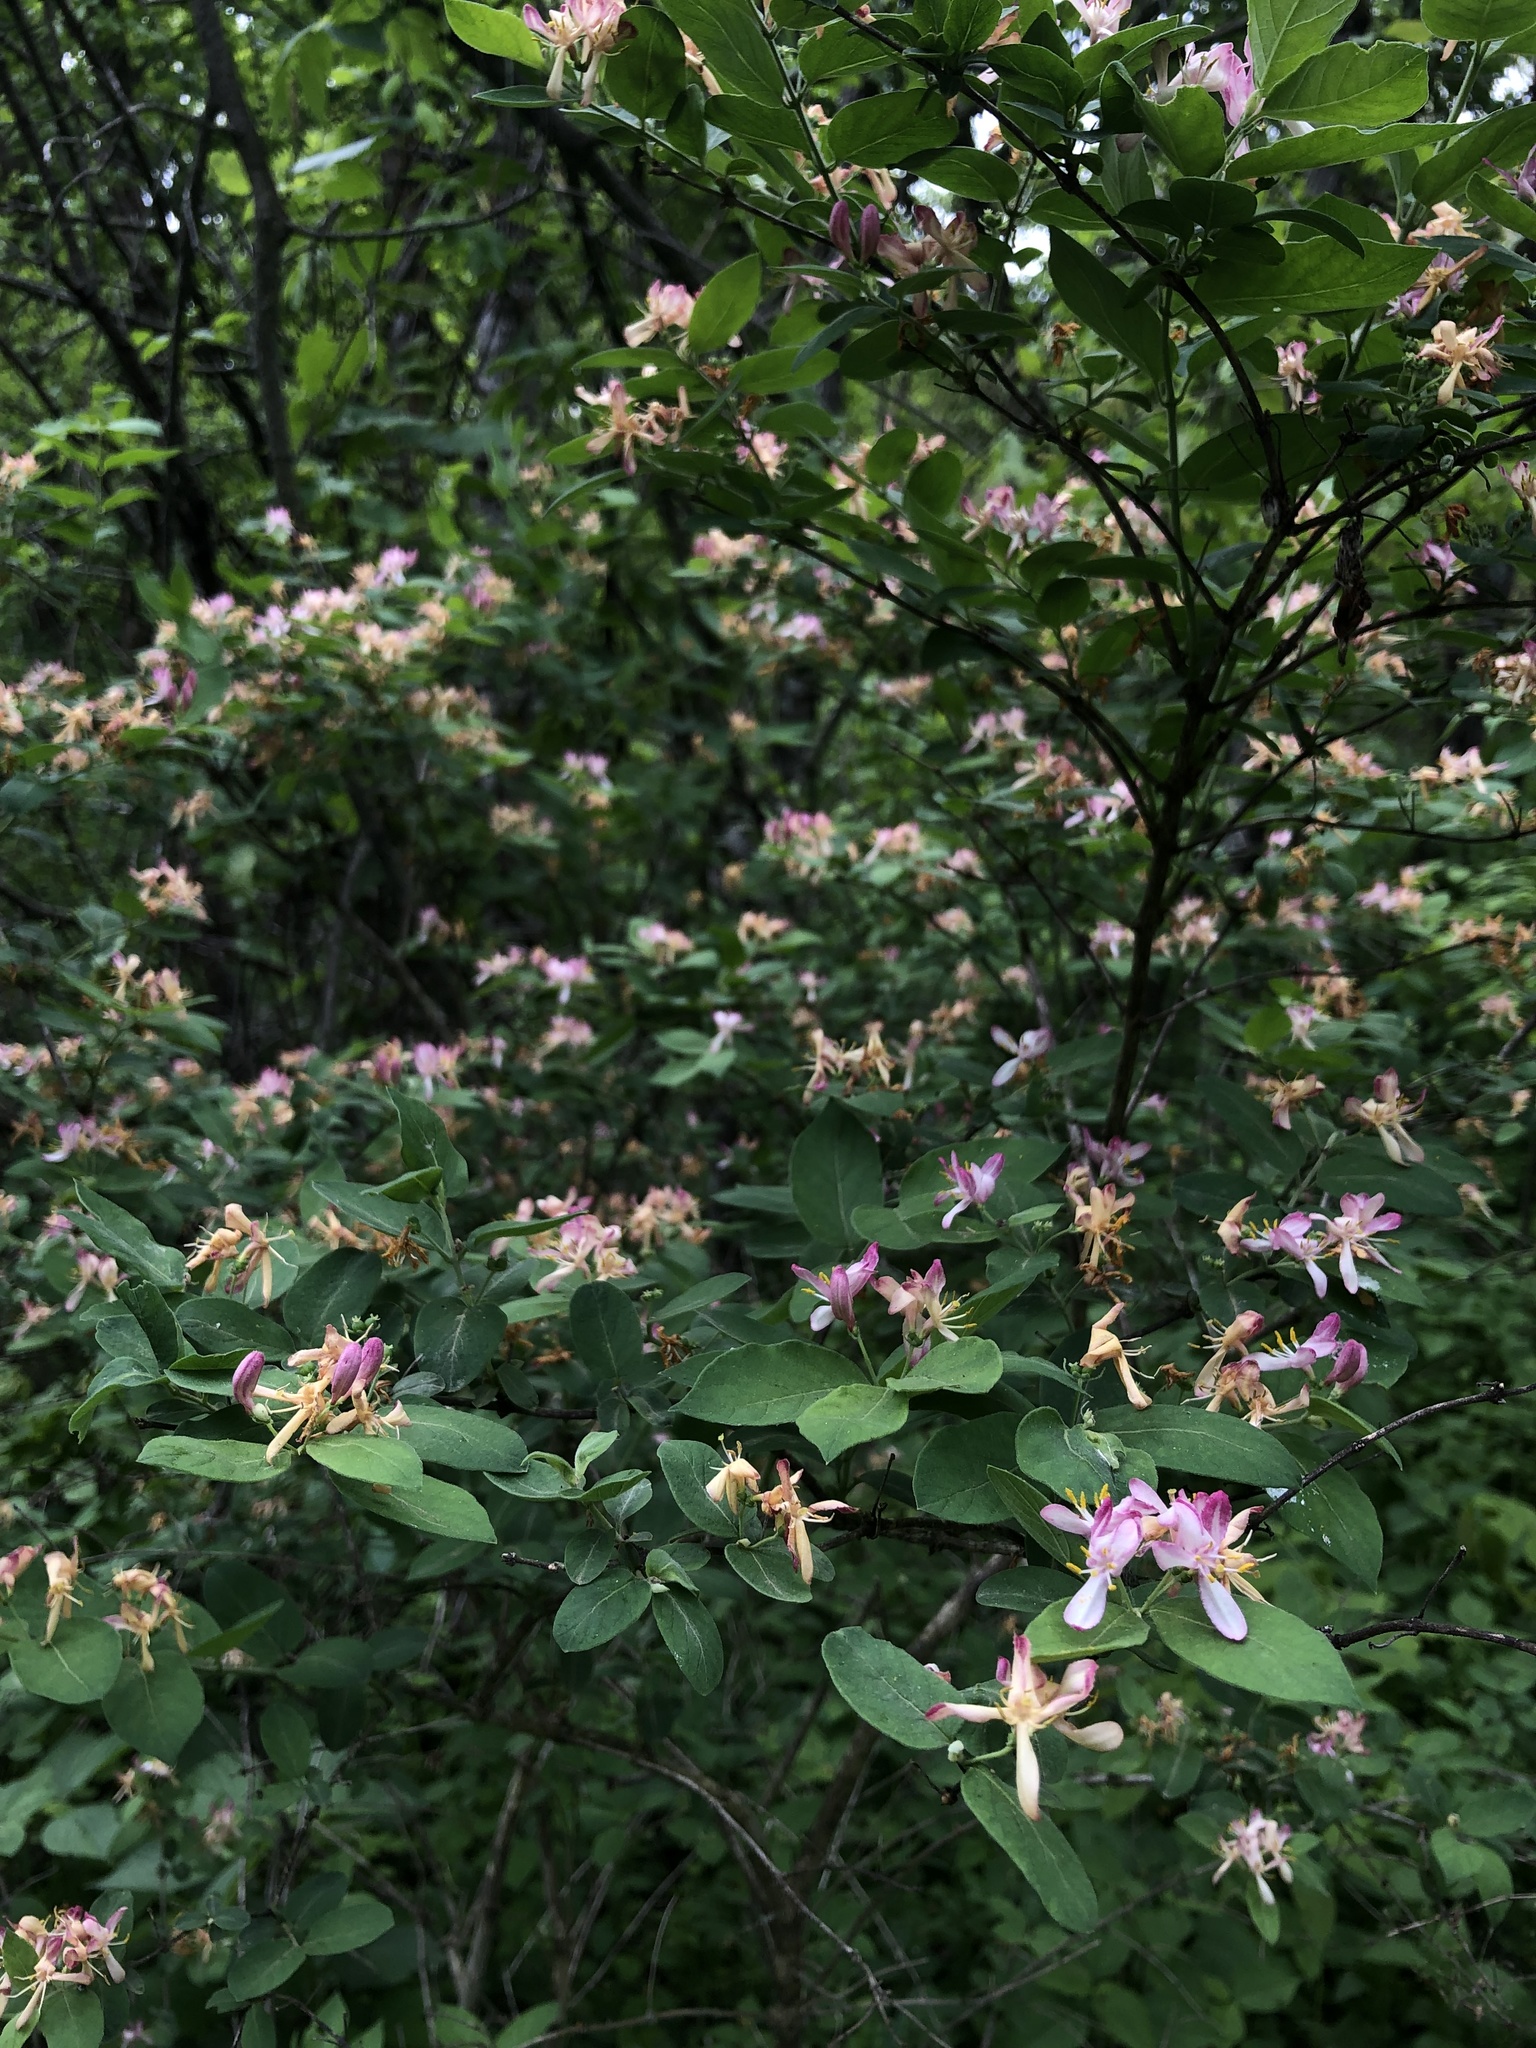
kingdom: Plantae
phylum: Tracheophyta
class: Magnoliopsida
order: Dipsacales
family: Caprifoliaceae
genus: Lonicera
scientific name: Lonicera tatarica
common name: Tatarian honeysuckle
